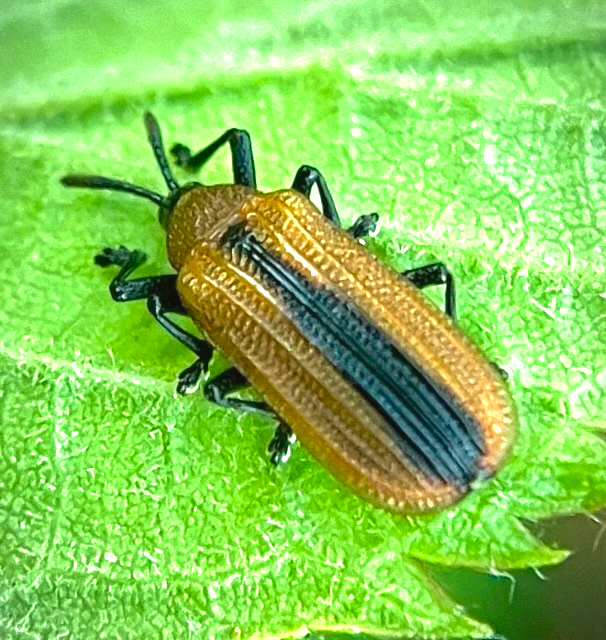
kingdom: Animalia
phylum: Arthropoda
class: Insecta
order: Coleoptera
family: Chrysomelidae
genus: Odontota
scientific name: Odontota dorsalis
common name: Locust leaf-miner beetle
